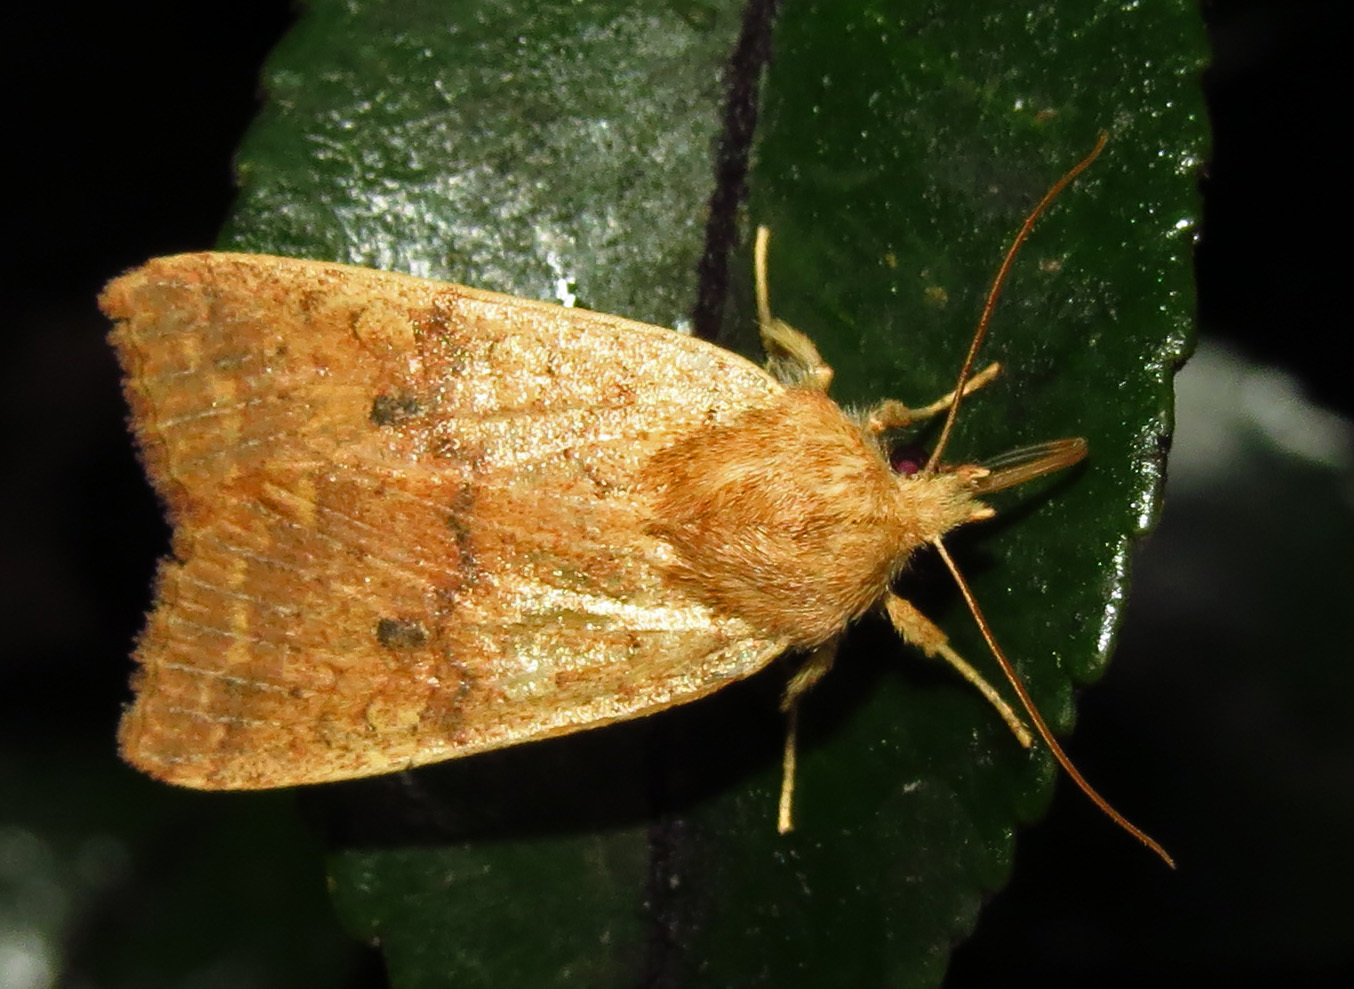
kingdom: Animalia
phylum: Arthropoda
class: Insecta
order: Lepidoptera
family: Noctuidae
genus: Agrochola
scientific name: Agrochola bicolorago
